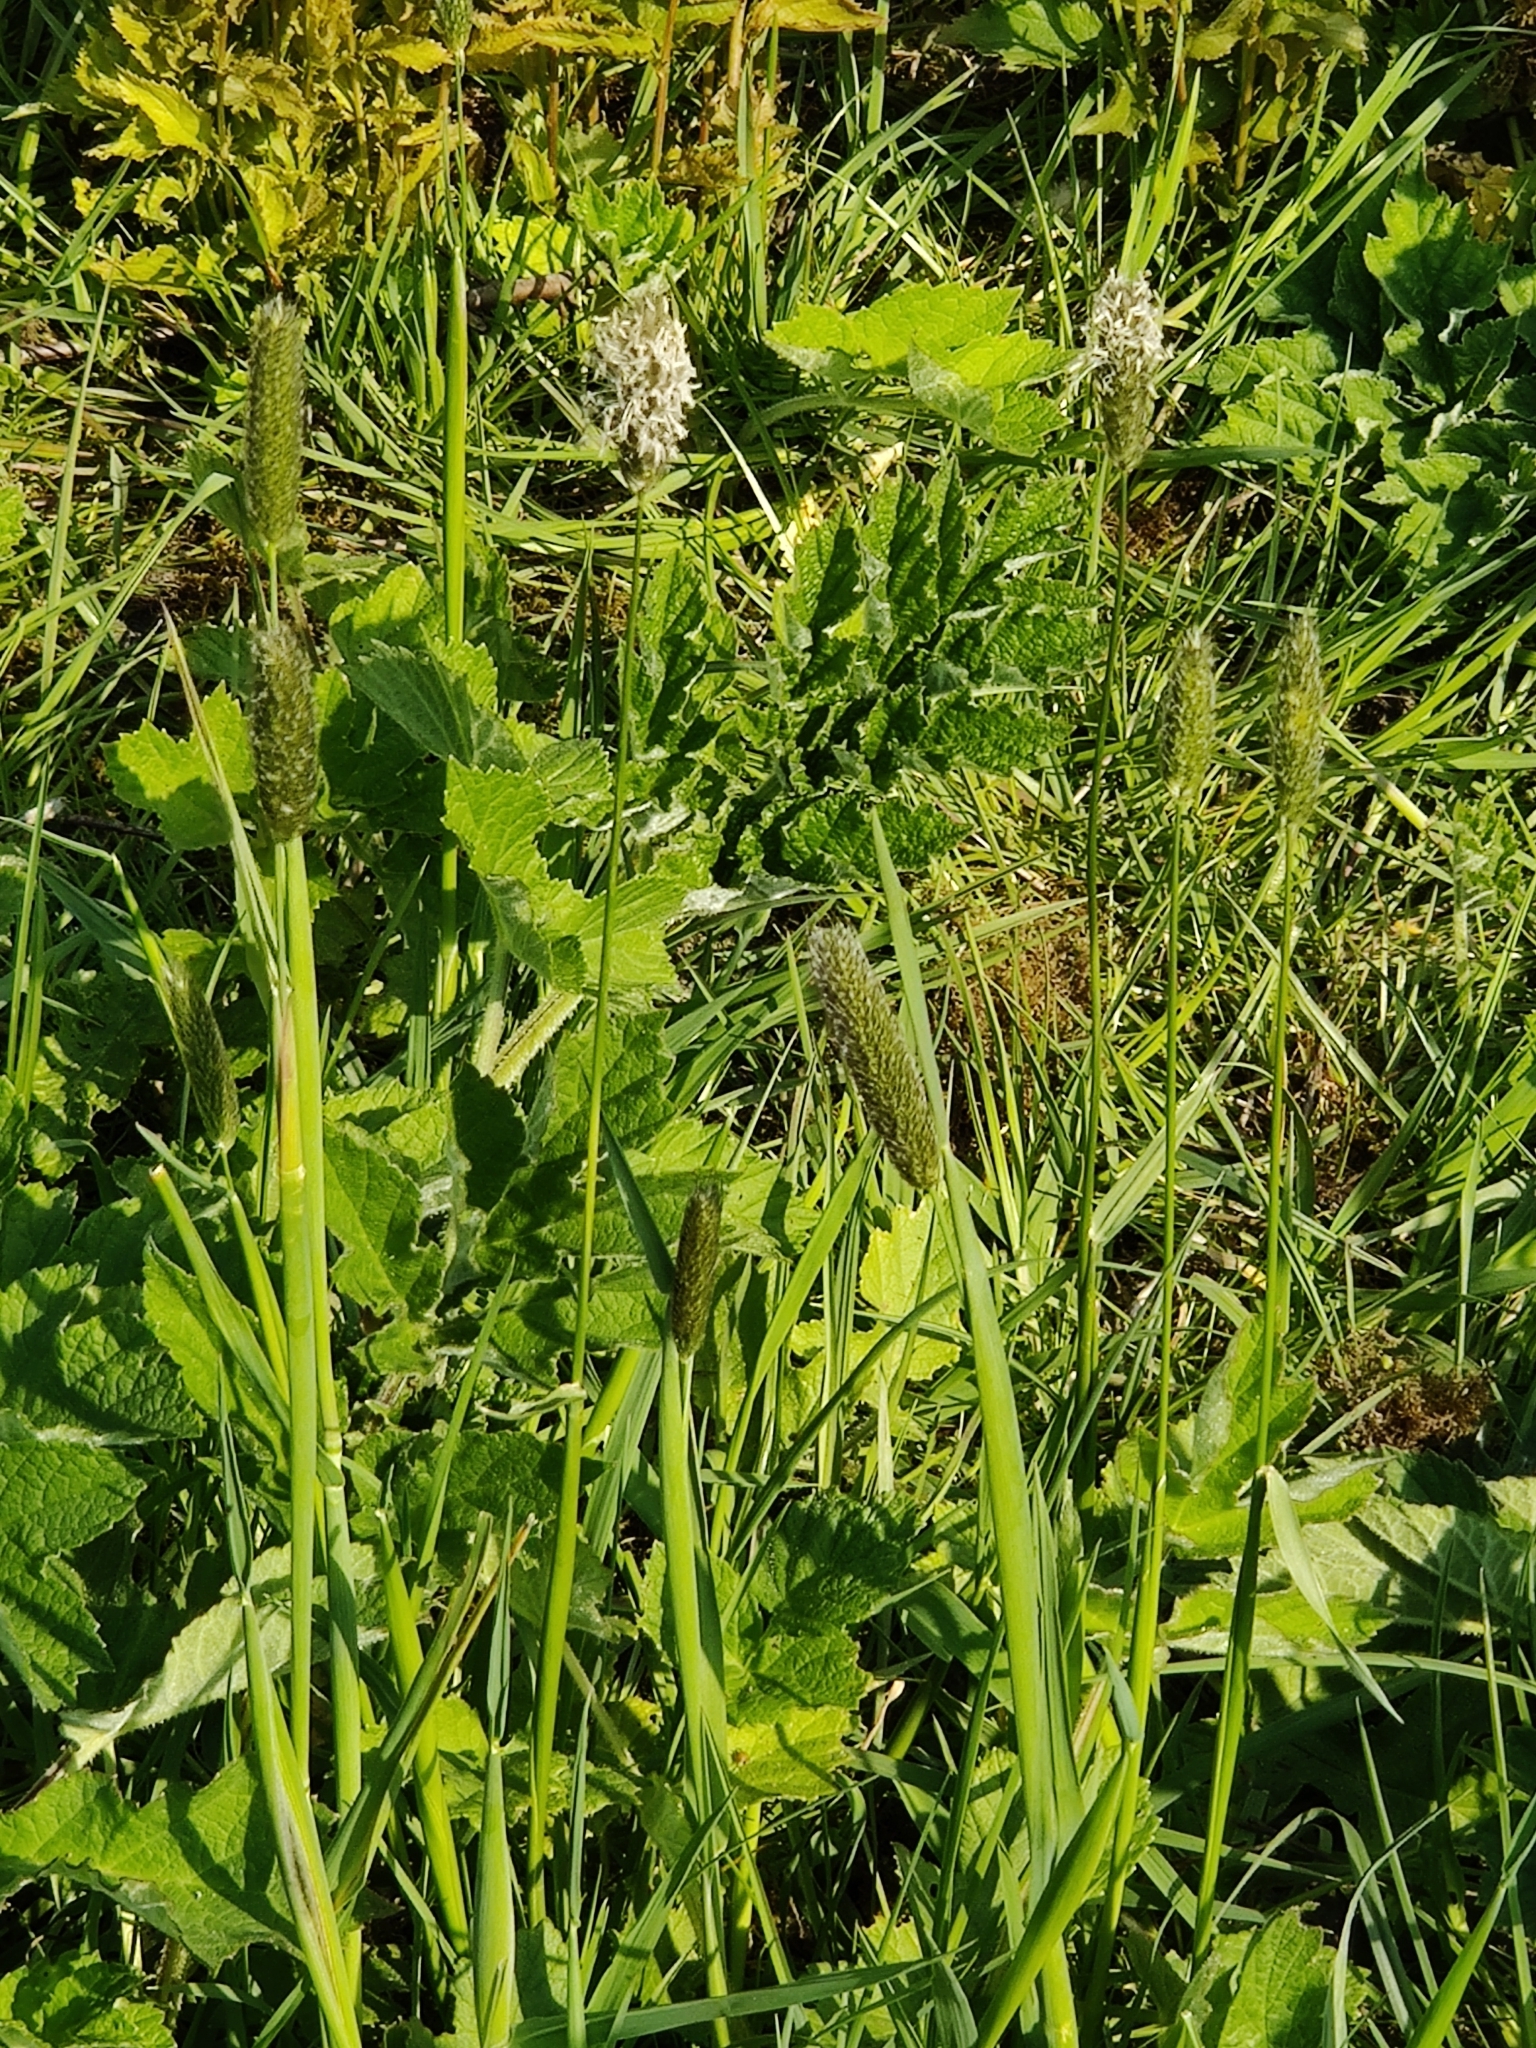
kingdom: Plantae
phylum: Tracheophyta
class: Liliopsida
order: Poales
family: Poaceae
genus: Alopecurus
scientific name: Alopecurus pratensis
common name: Meadow foxtail
